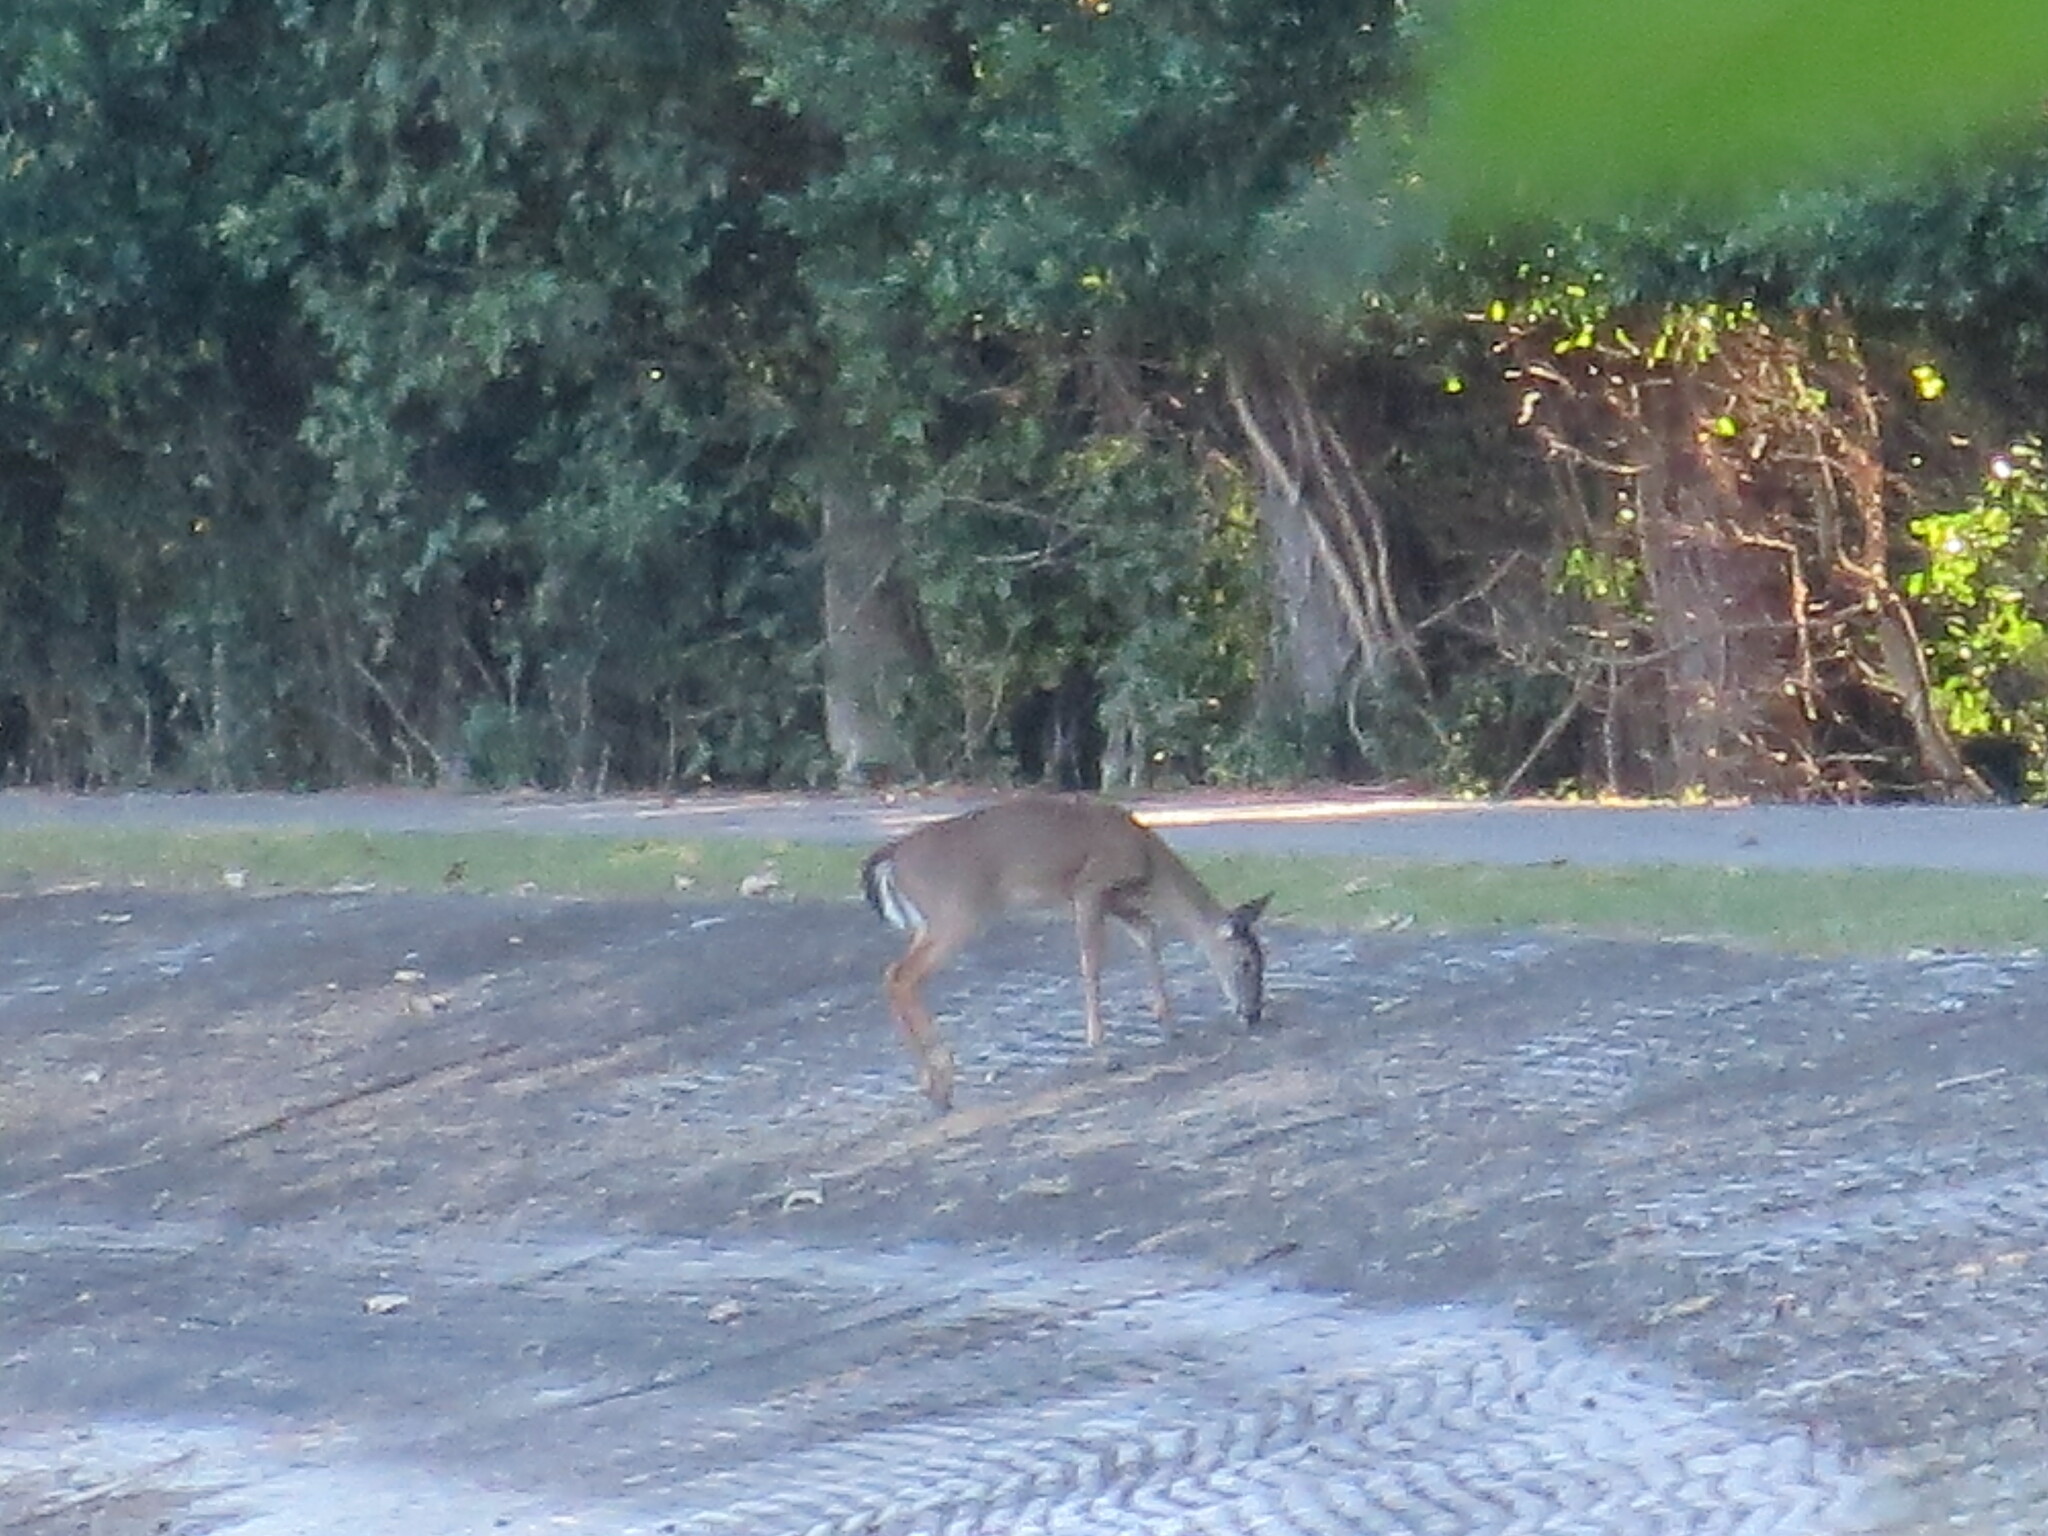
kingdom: Animalia
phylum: Chordata
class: Mammalia
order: Artiodactyla
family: Cervidae
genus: Odocoileus
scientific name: Odocoileus virginianus
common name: White-tailed deer
